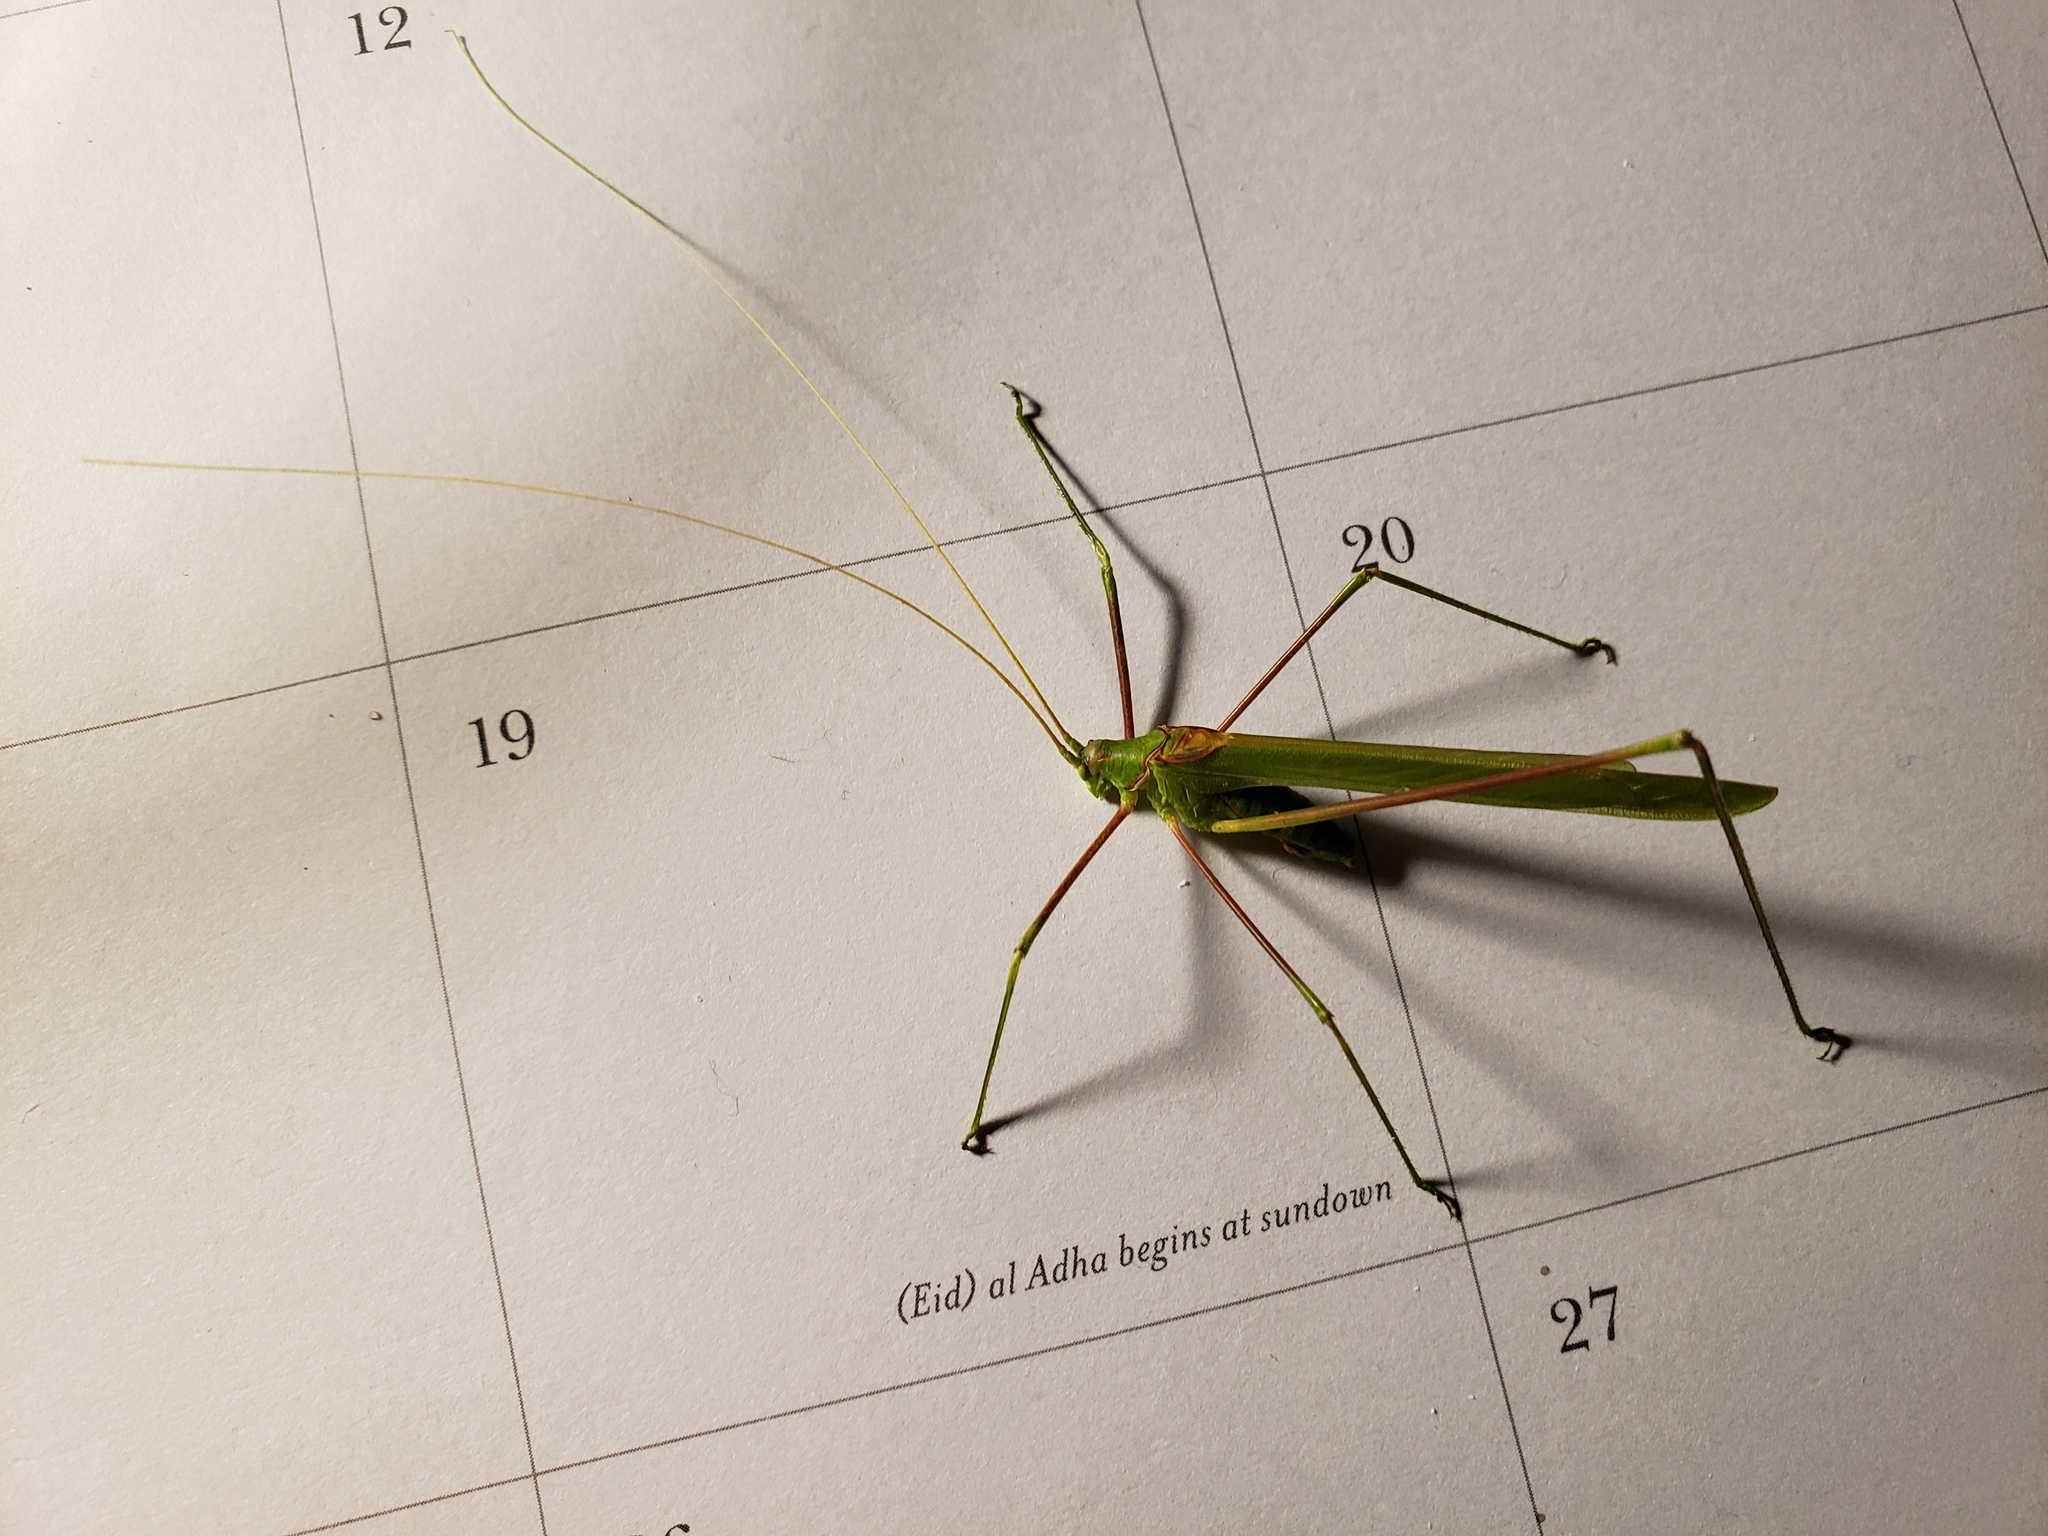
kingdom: Animalia
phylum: Arthropoda
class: Insecta
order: Orthoptera
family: Tettigoniidae
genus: Arethaea
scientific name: Arethaea phalangium
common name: Eastern thread-legged katydid
